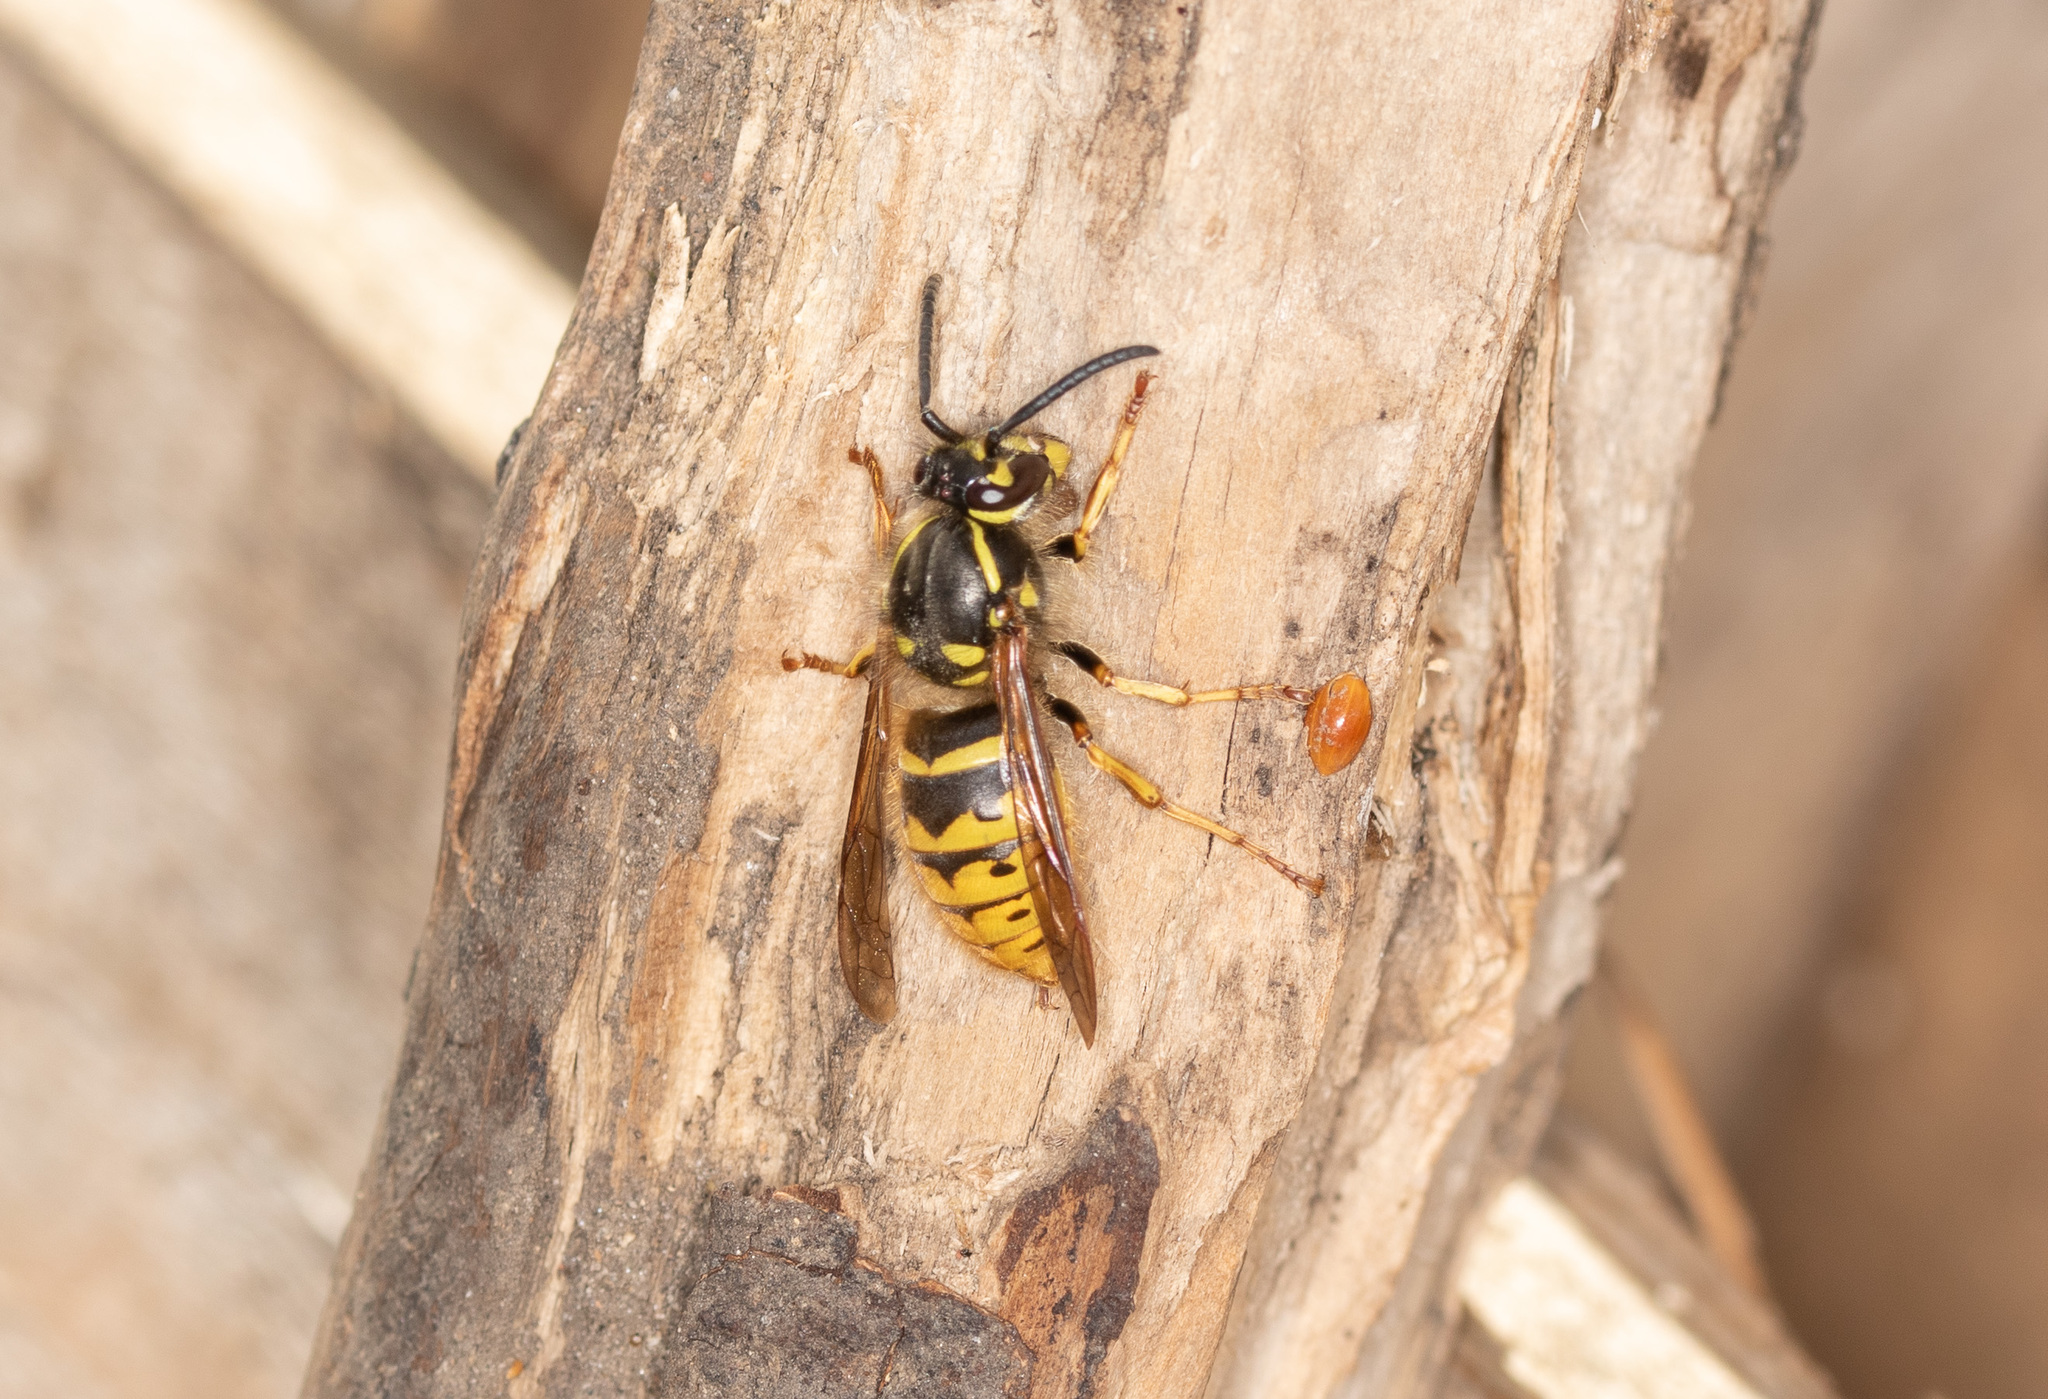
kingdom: Animalia
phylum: Arthropoda
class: Insecta
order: Hymenoptera
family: Vespidae
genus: Vespula
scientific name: Vespula vulgaris
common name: Common wasp
